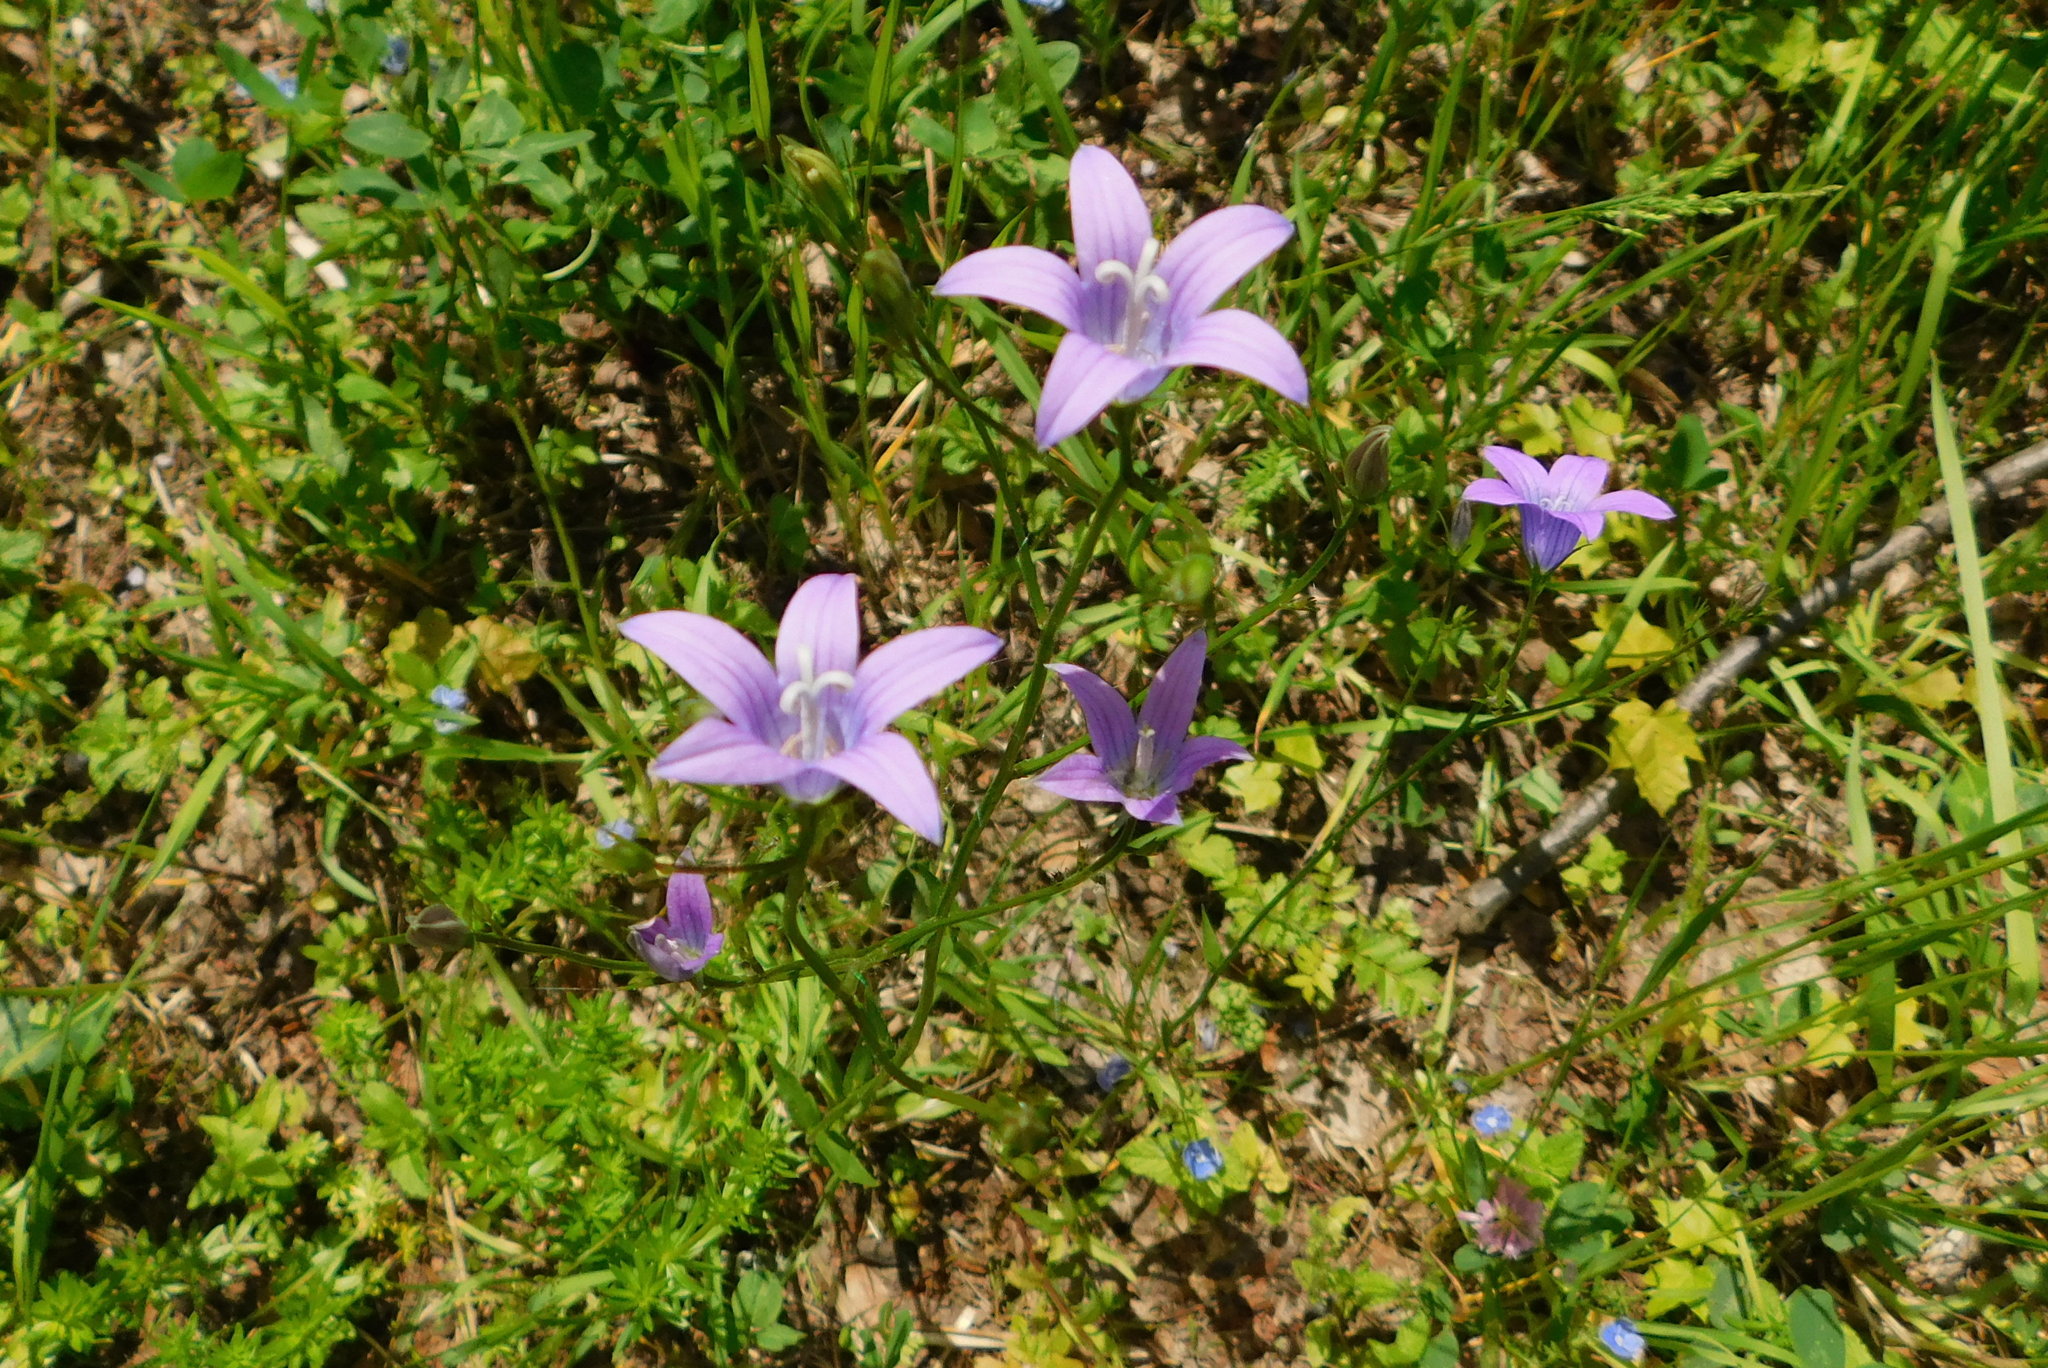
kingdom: Plantae
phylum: Tracheophyta
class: Magnoliopsida
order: Asterales
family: Campanulaceae
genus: Campanula
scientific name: Campanula patula
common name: Spreading bellflower
